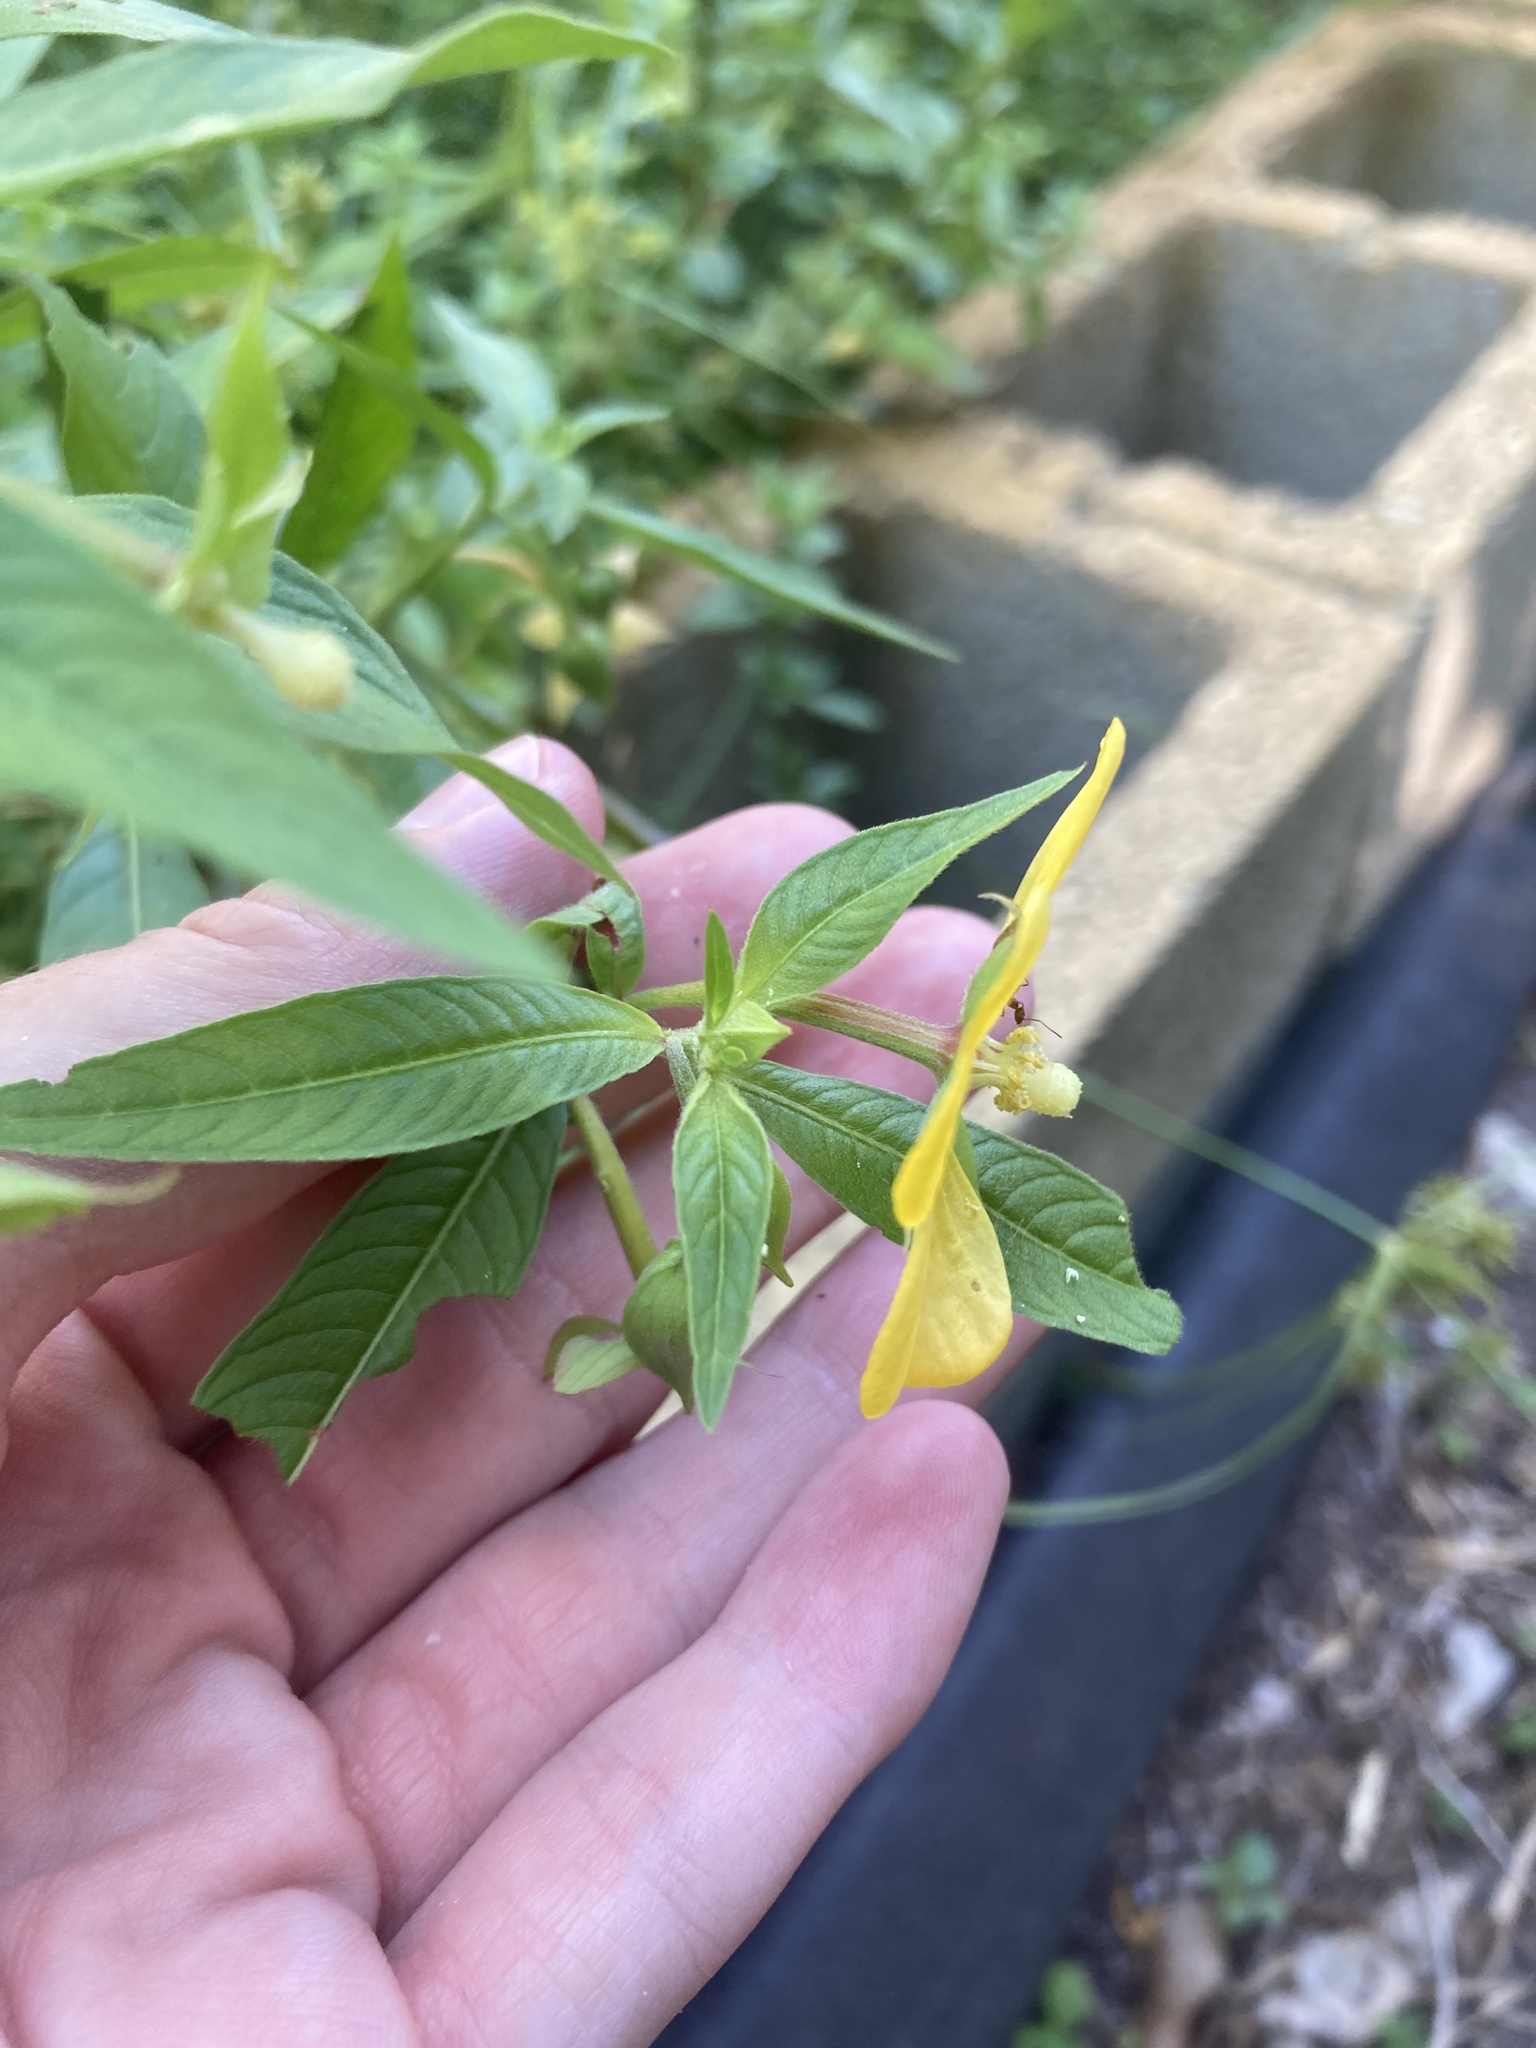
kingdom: Plantae
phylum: Tracheophyta
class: Magnoliopsida
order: Myrtales
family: Onagraceae
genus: Ludwigia
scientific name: Ludwigia octovalvis
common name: Water-primrose
